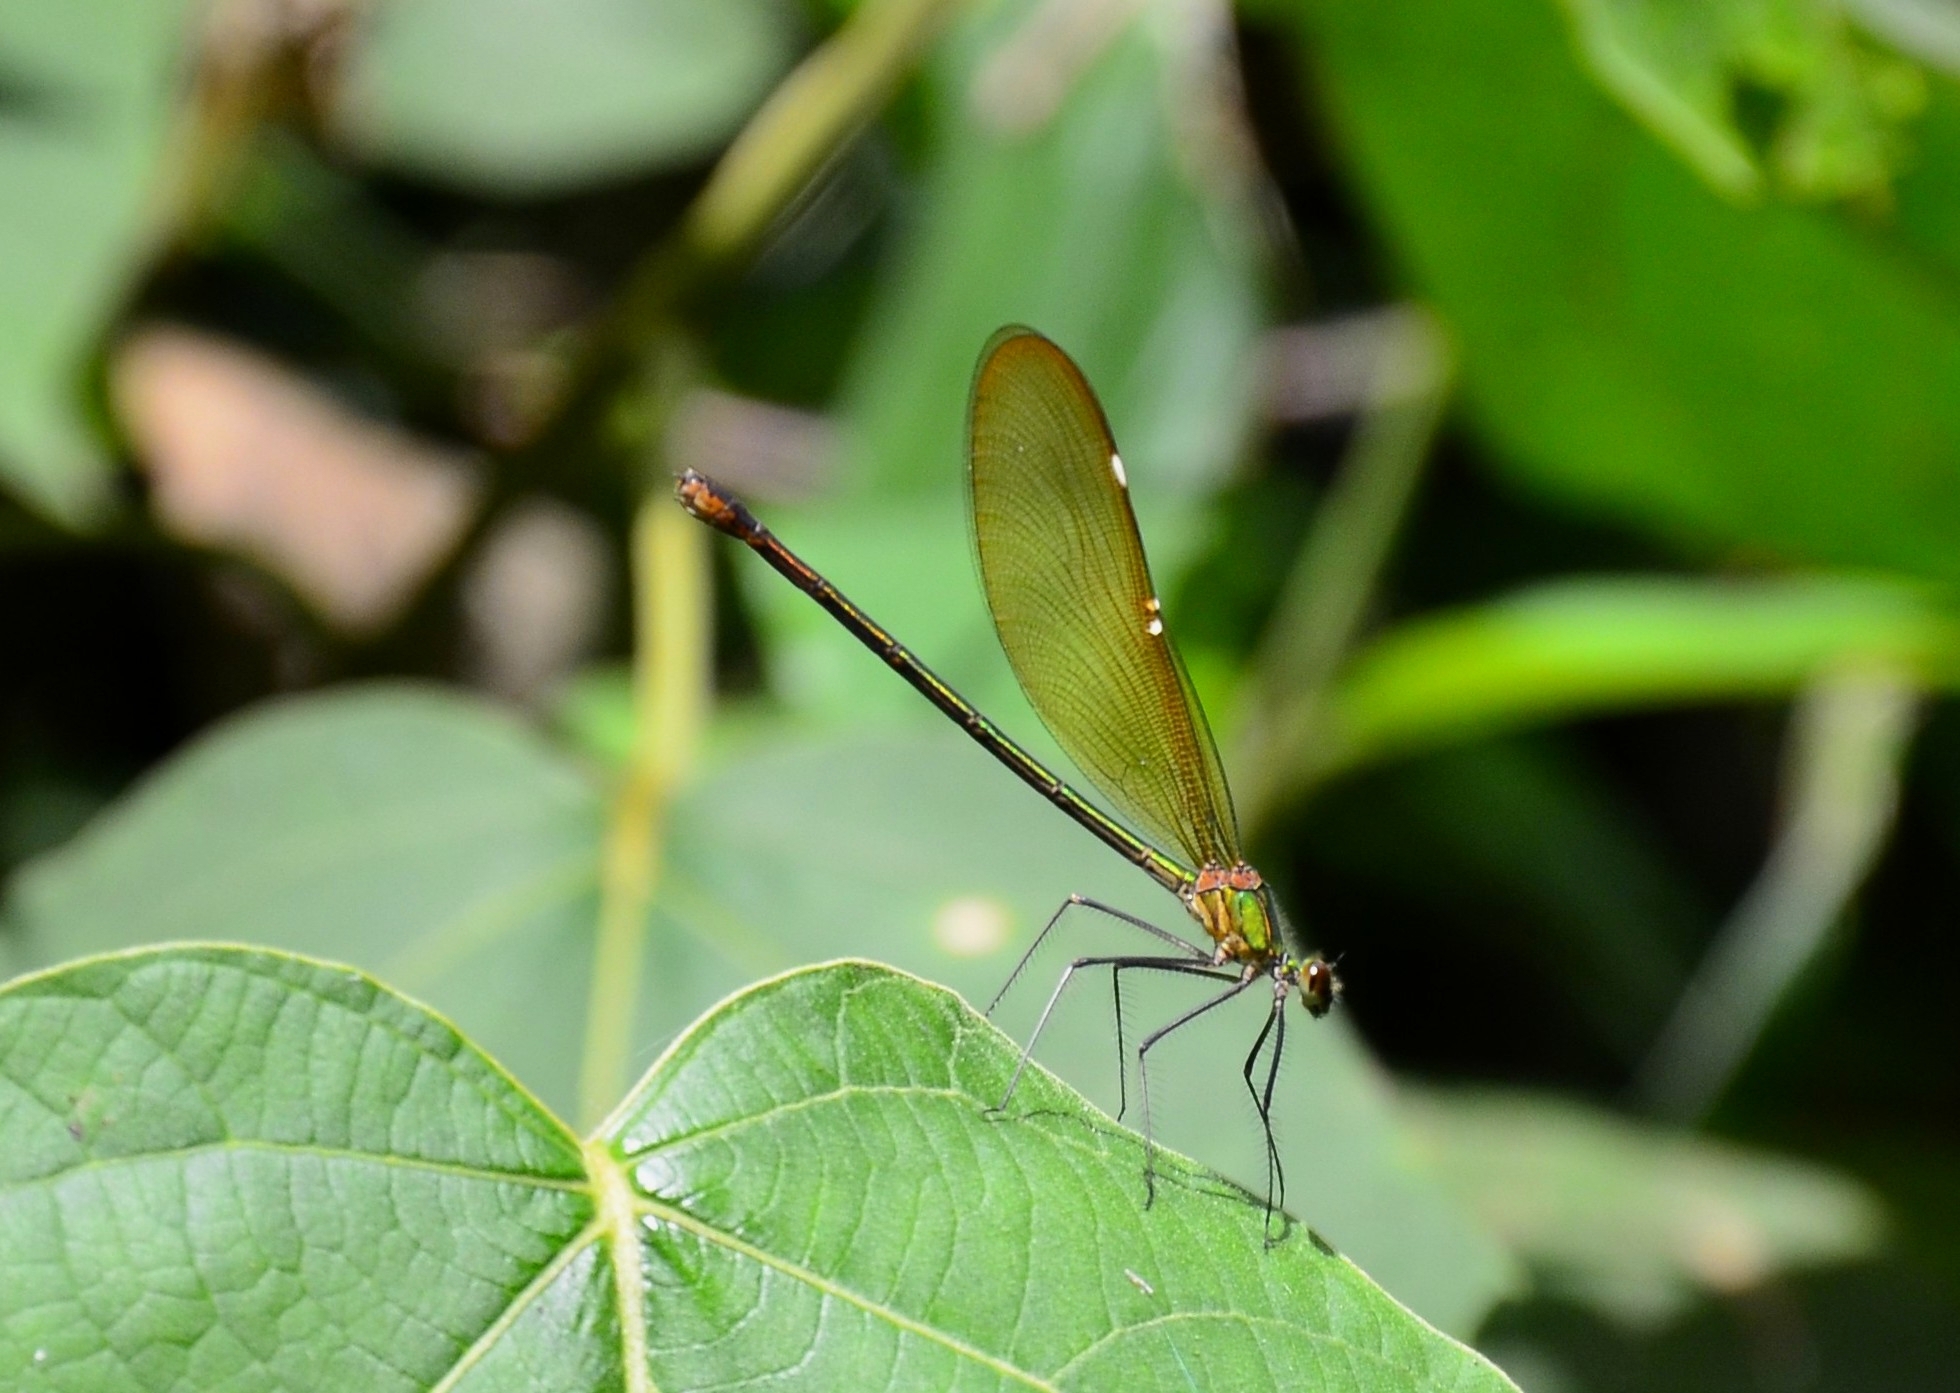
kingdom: Animalia
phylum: Arthropoda
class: Insecta
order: Odonata
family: Calopterygidae
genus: Neurobasis
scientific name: Neurobasis chinensis
